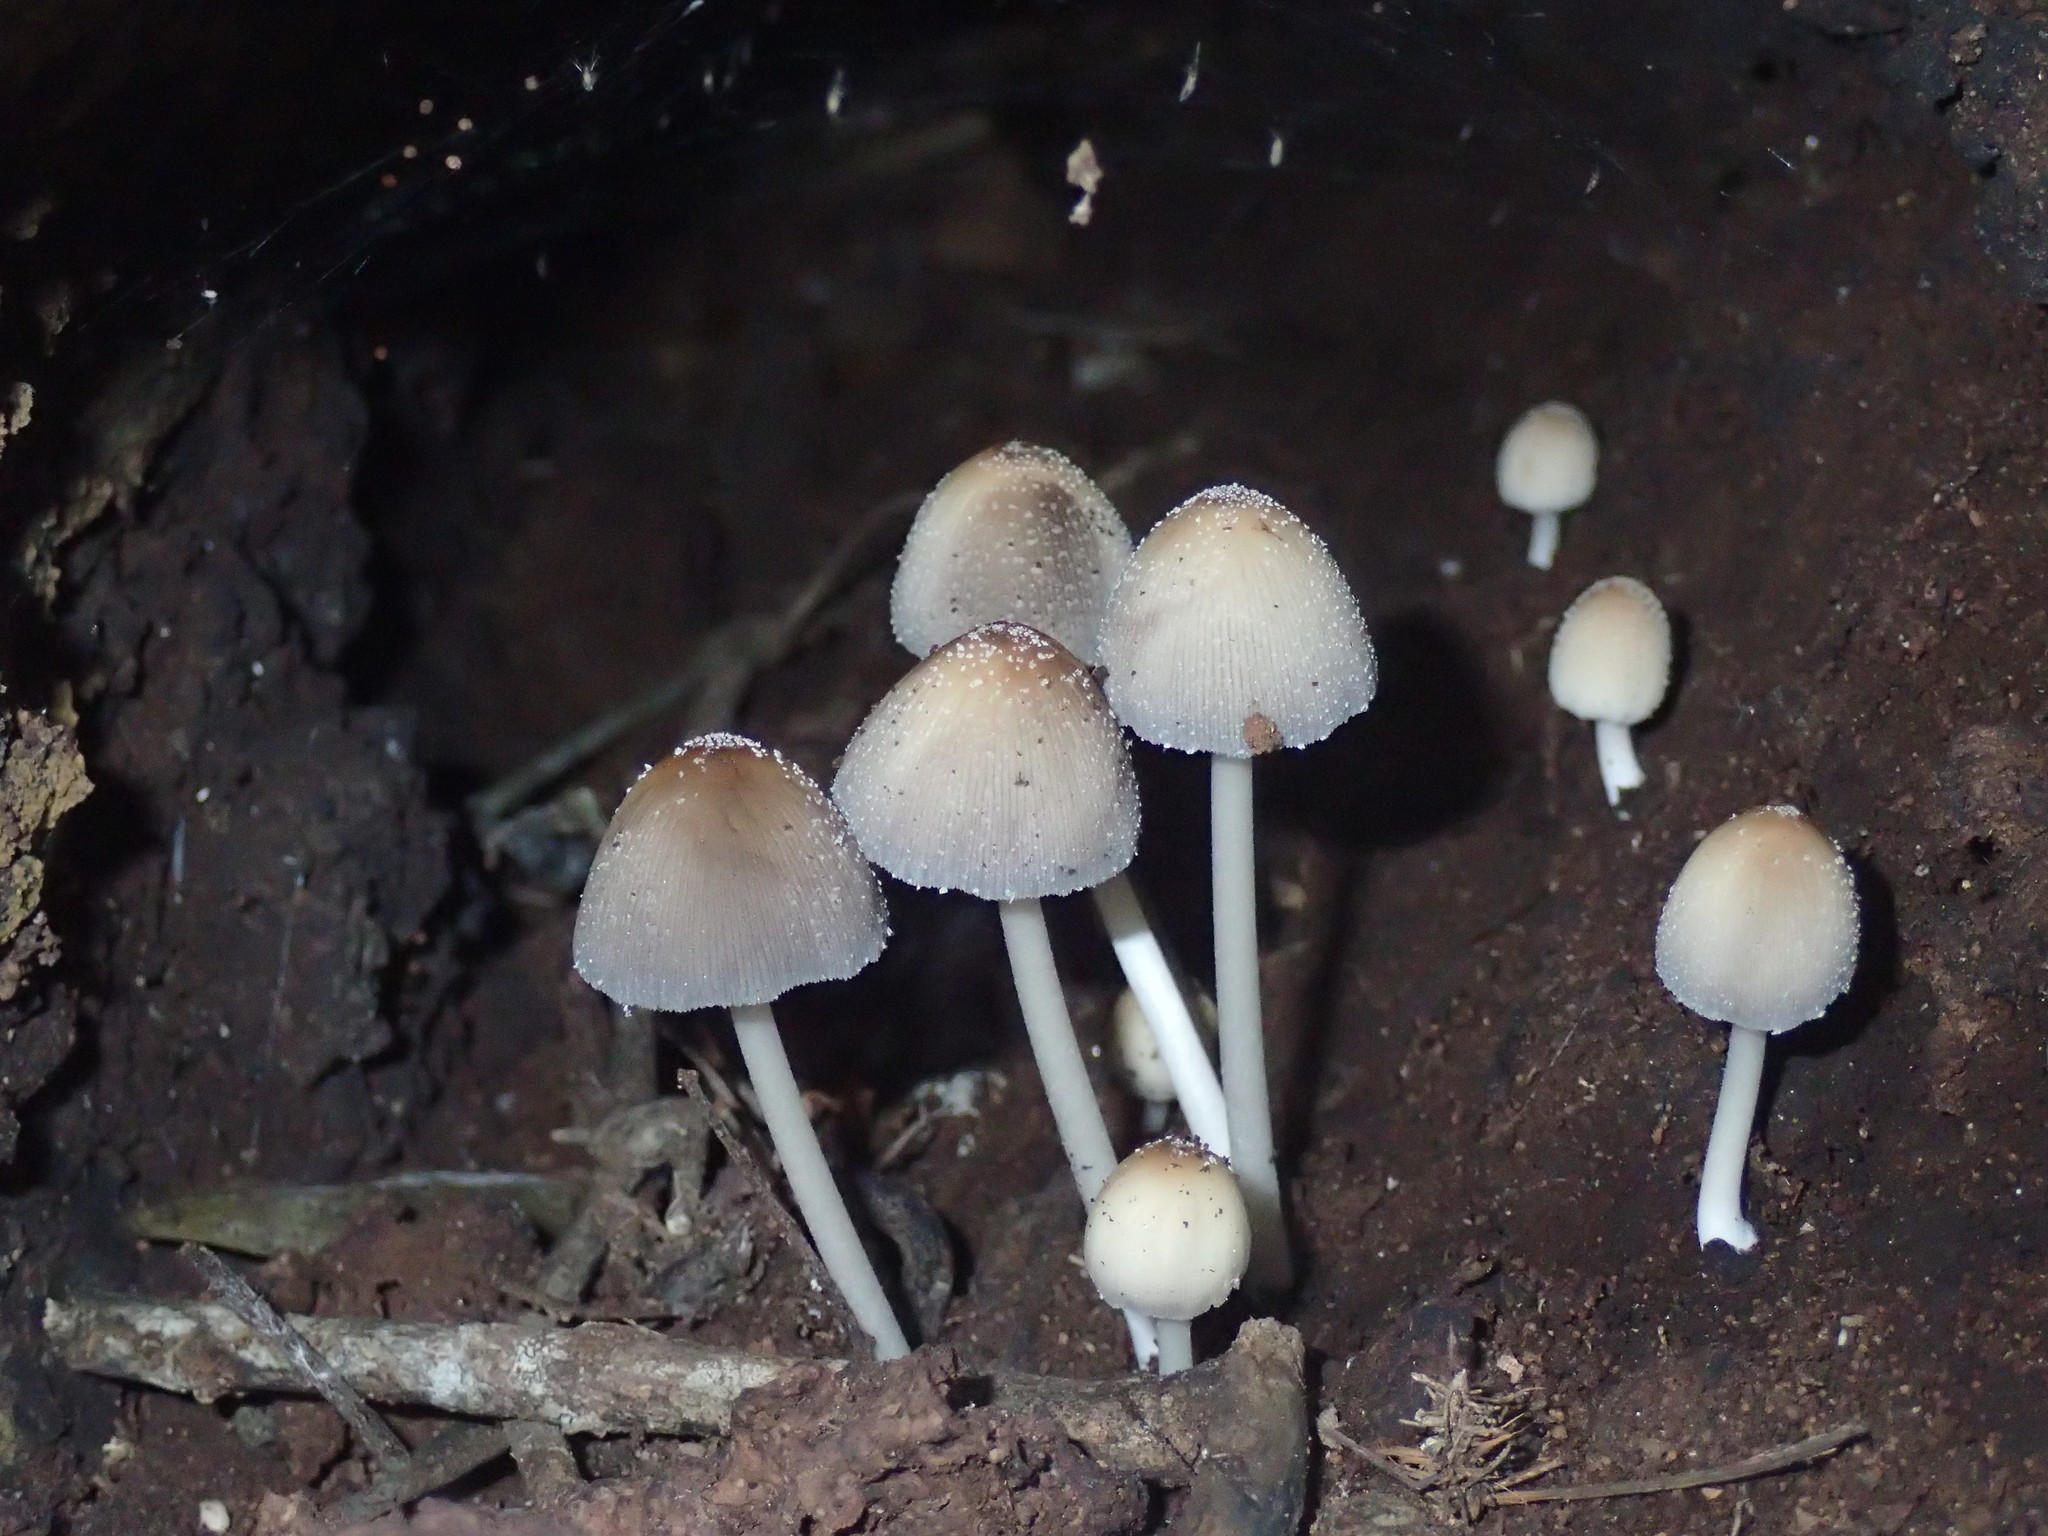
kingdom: Fungi
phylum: Basidiomycota
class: Agaricomycetes
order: Agaricales
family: Psathyrellaceae
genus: Coprinellus
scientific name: Coprinellus micaceus
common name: Glistening ink-cap
